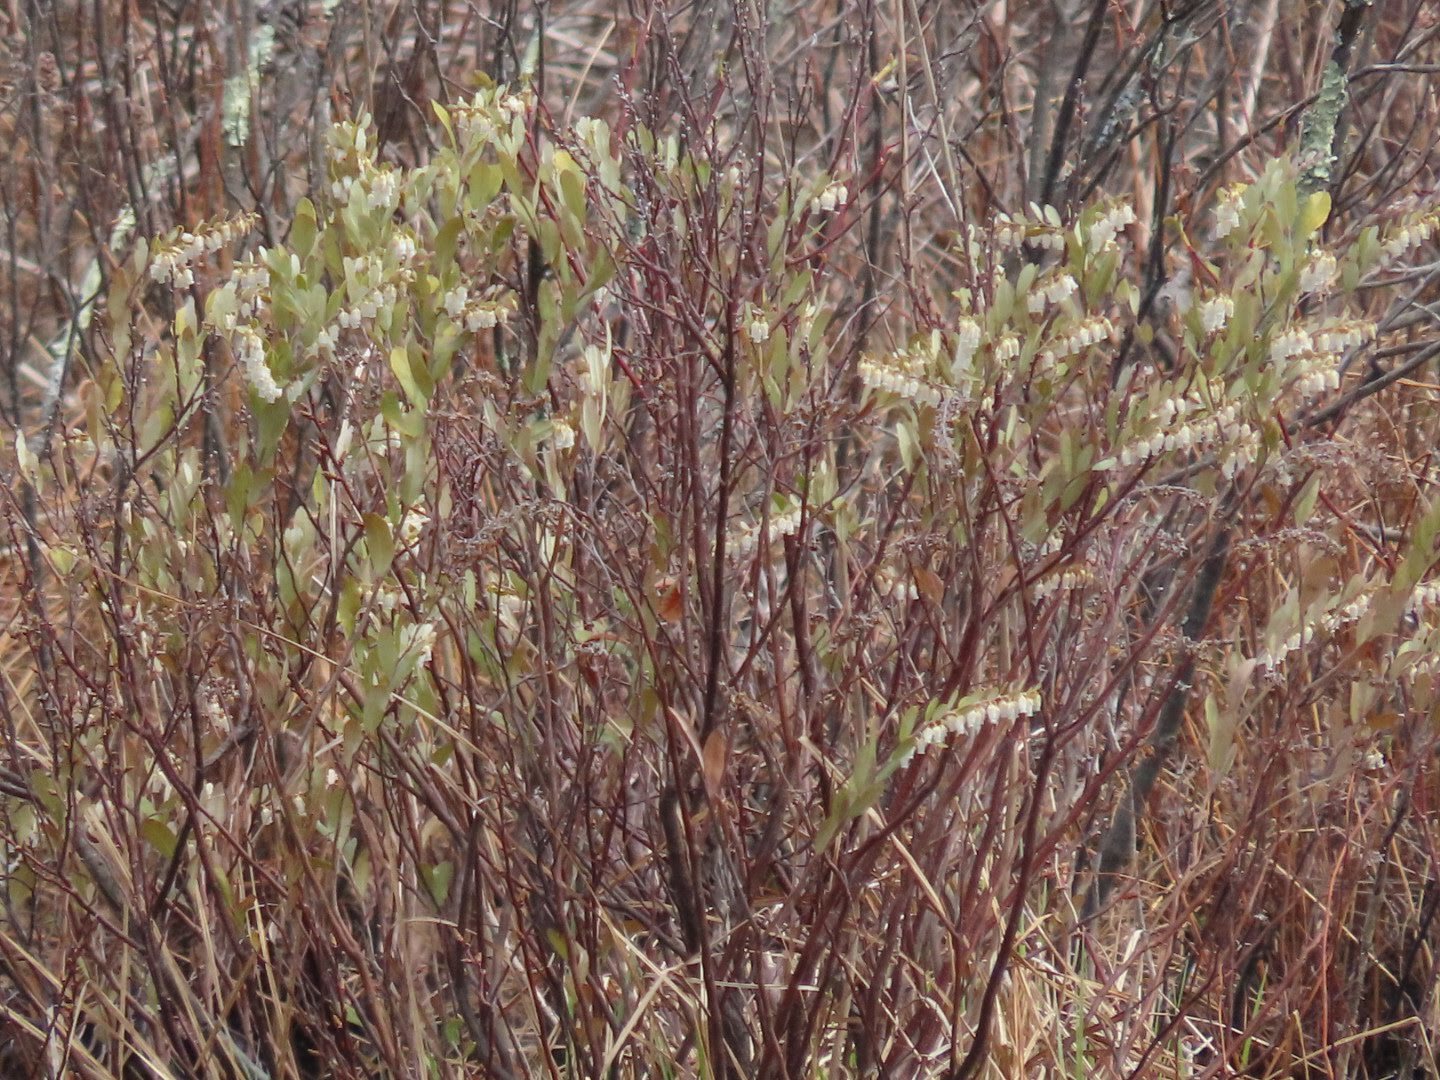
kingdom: Plantae
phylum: Tracheophyta
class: Magnoliopsida
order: Ericales
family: Ericaceae
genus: Chamaedaphne
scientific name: Chamaedaphne calyculata
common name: Leatherleaf
